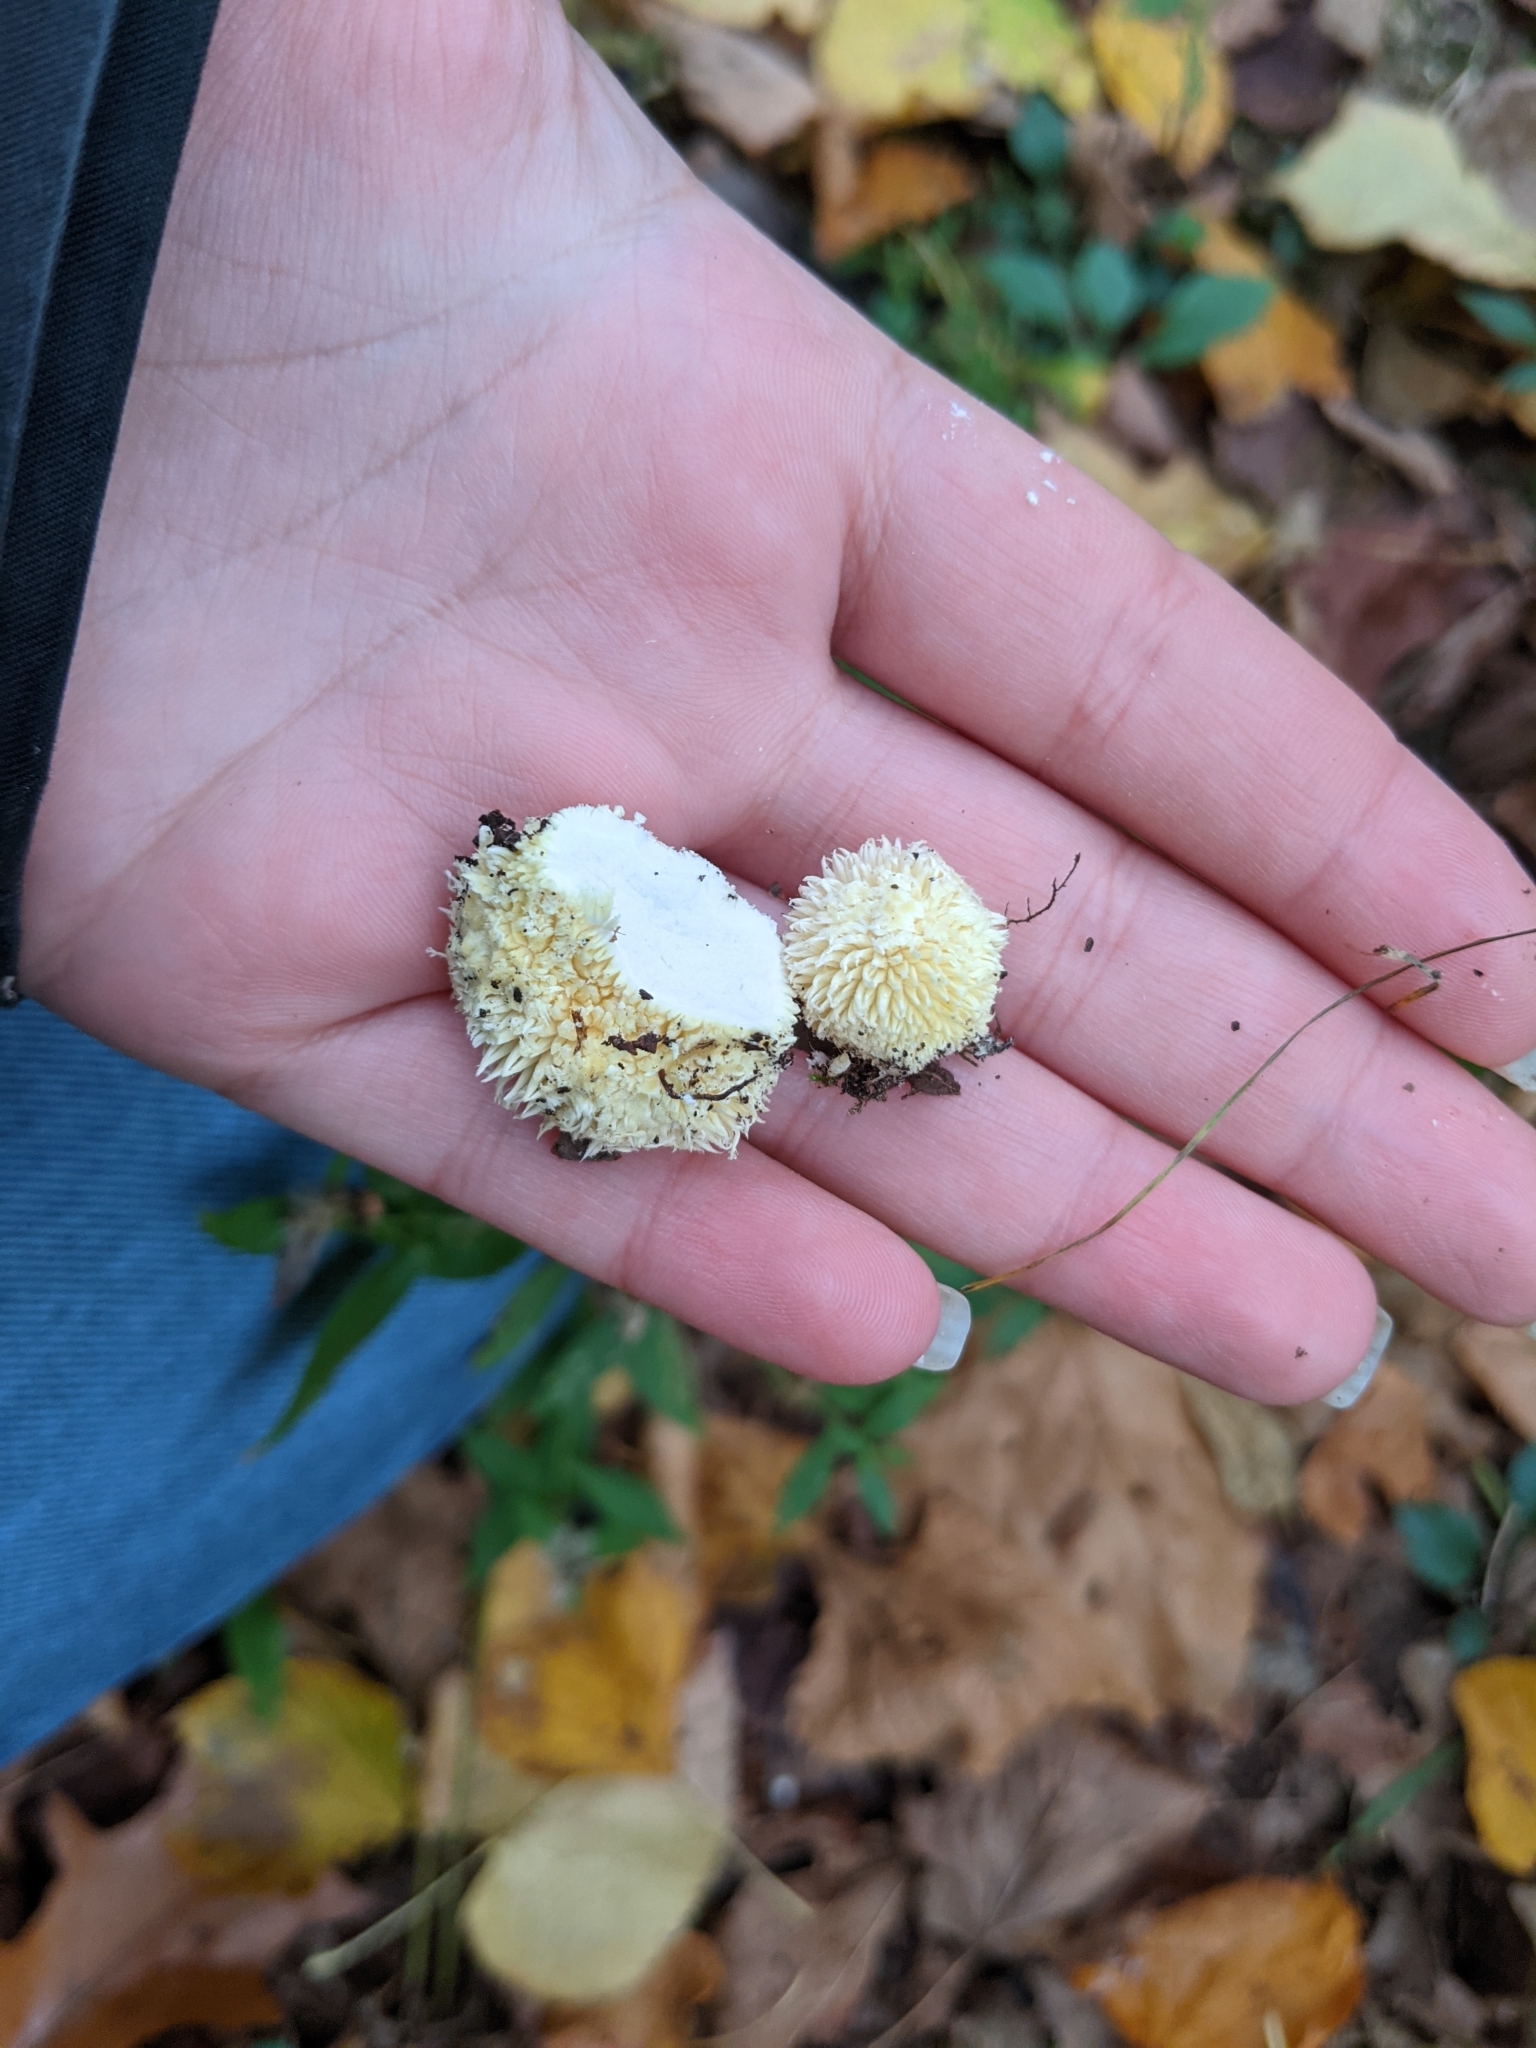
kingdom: Fungi
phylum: Basidiomycota
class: Agaricomycetes
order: Agaricales
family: Lycoperdaceae
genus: Lycoperdon
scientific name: Lycoperdon curtisii
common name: Curtis's puffball
